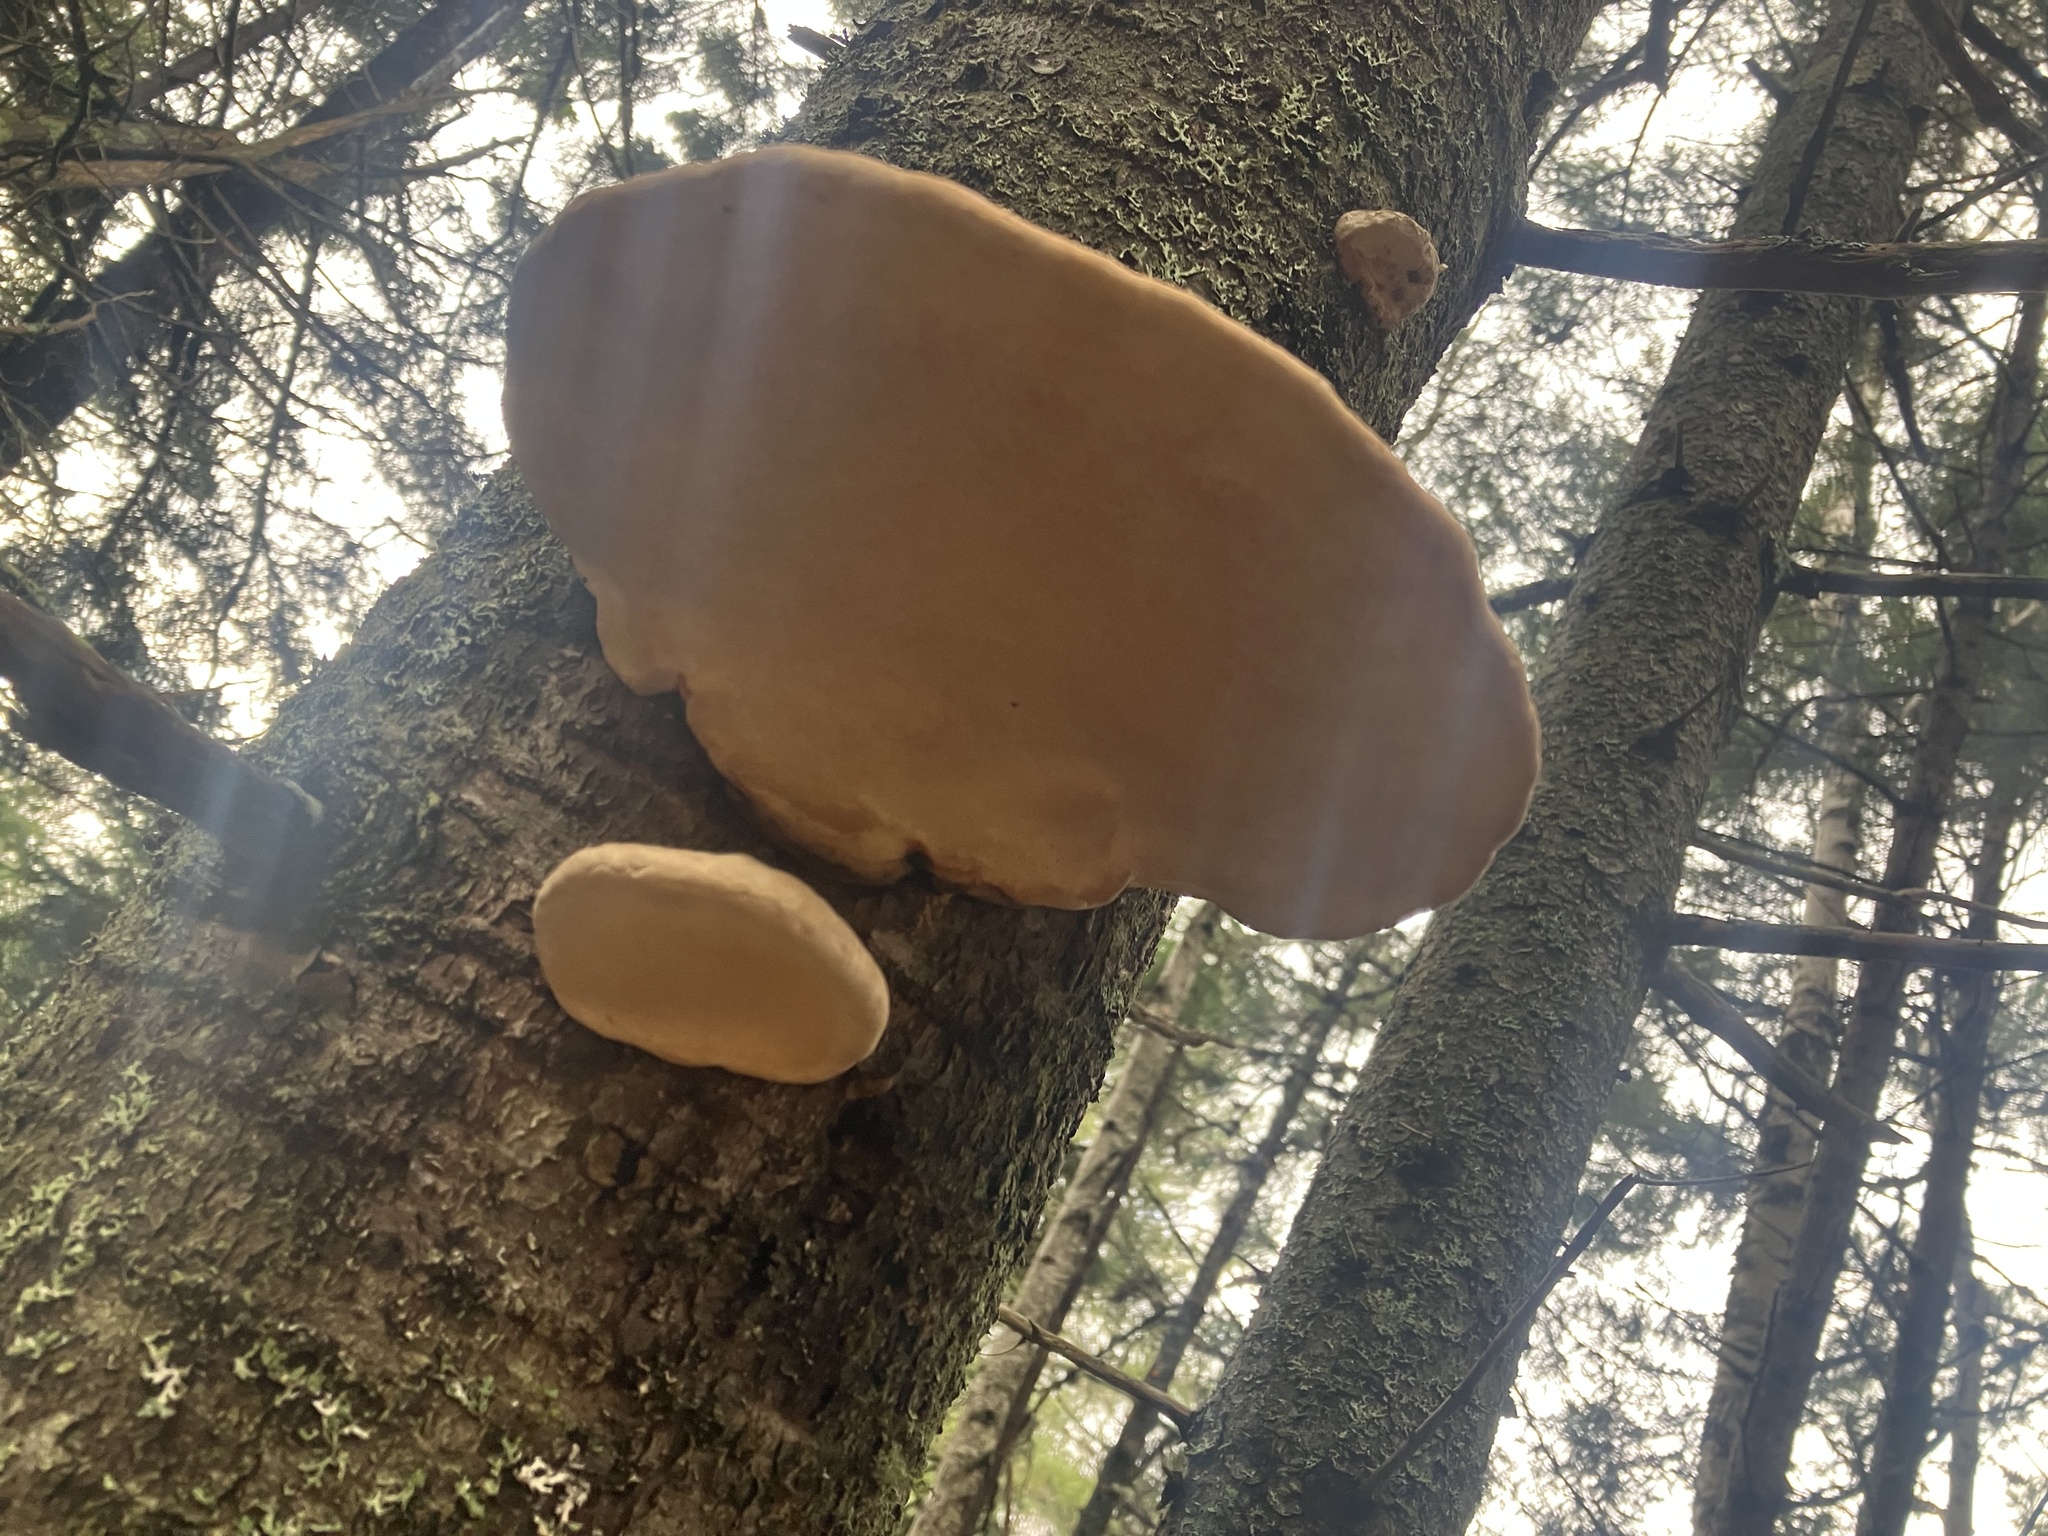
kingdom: Fungi
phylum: Basidiomycota
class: Agaricomycetes
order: Polyporales
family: Fomitopsidaceae
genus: Fomitopsis
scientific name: Fomitopsis mounceae
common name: Northern red belt
